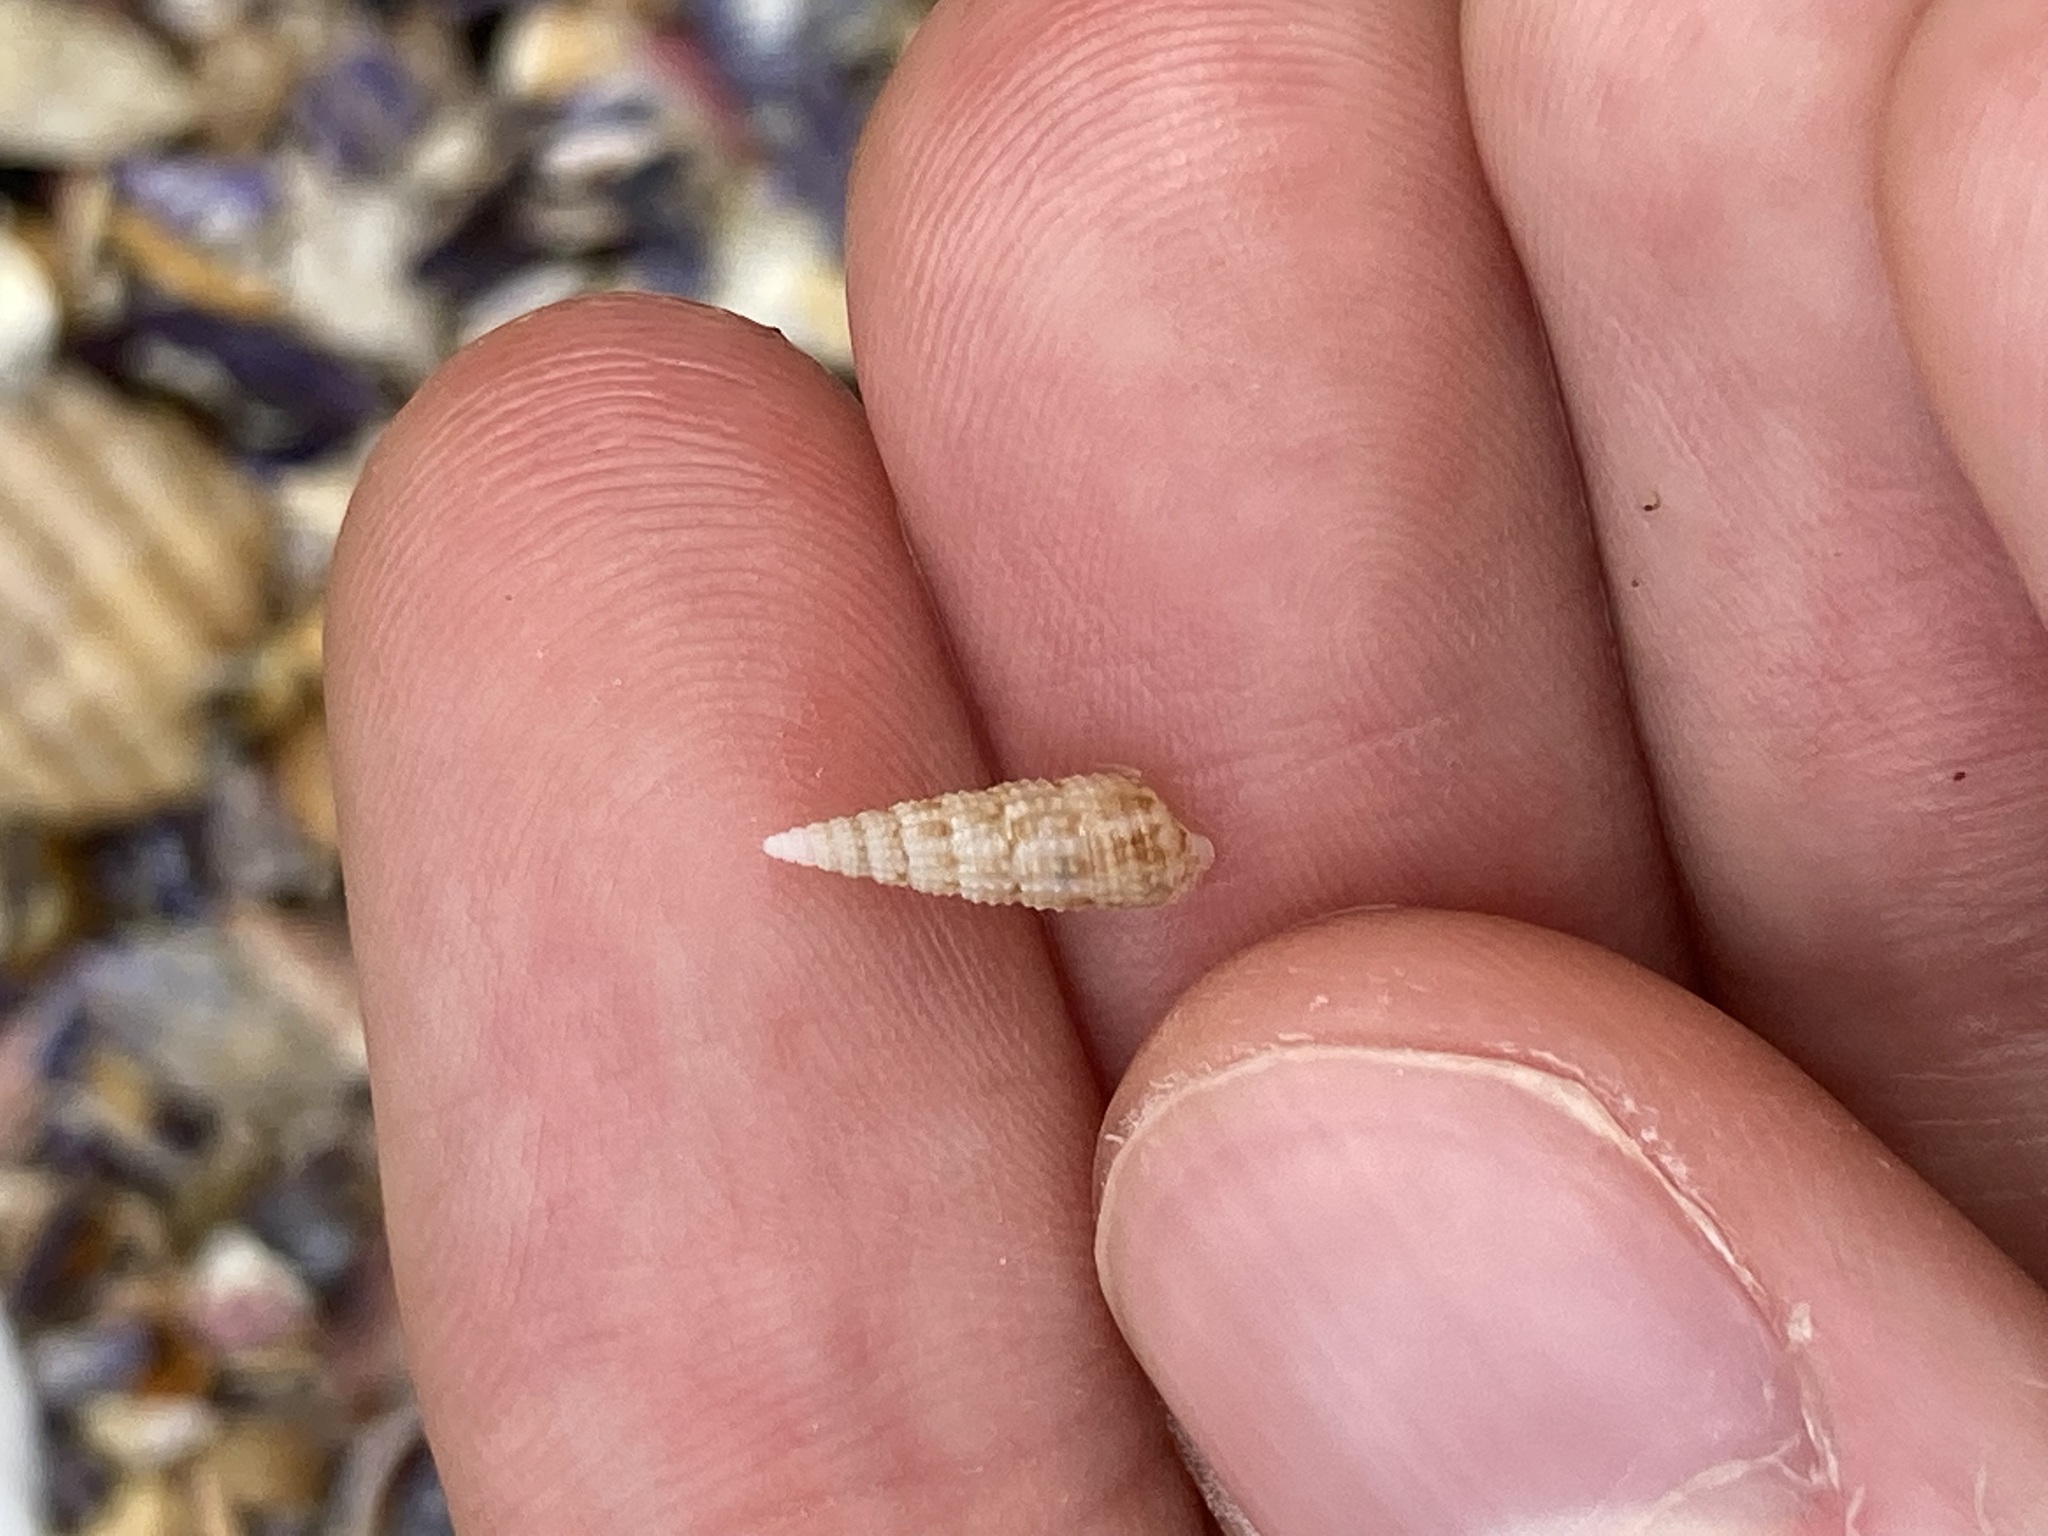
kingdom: Animalia
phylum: Mollusca
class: Gastropoda
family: Cerithiidae
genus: Cacozeliana
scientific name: Cacozeliana granarium
